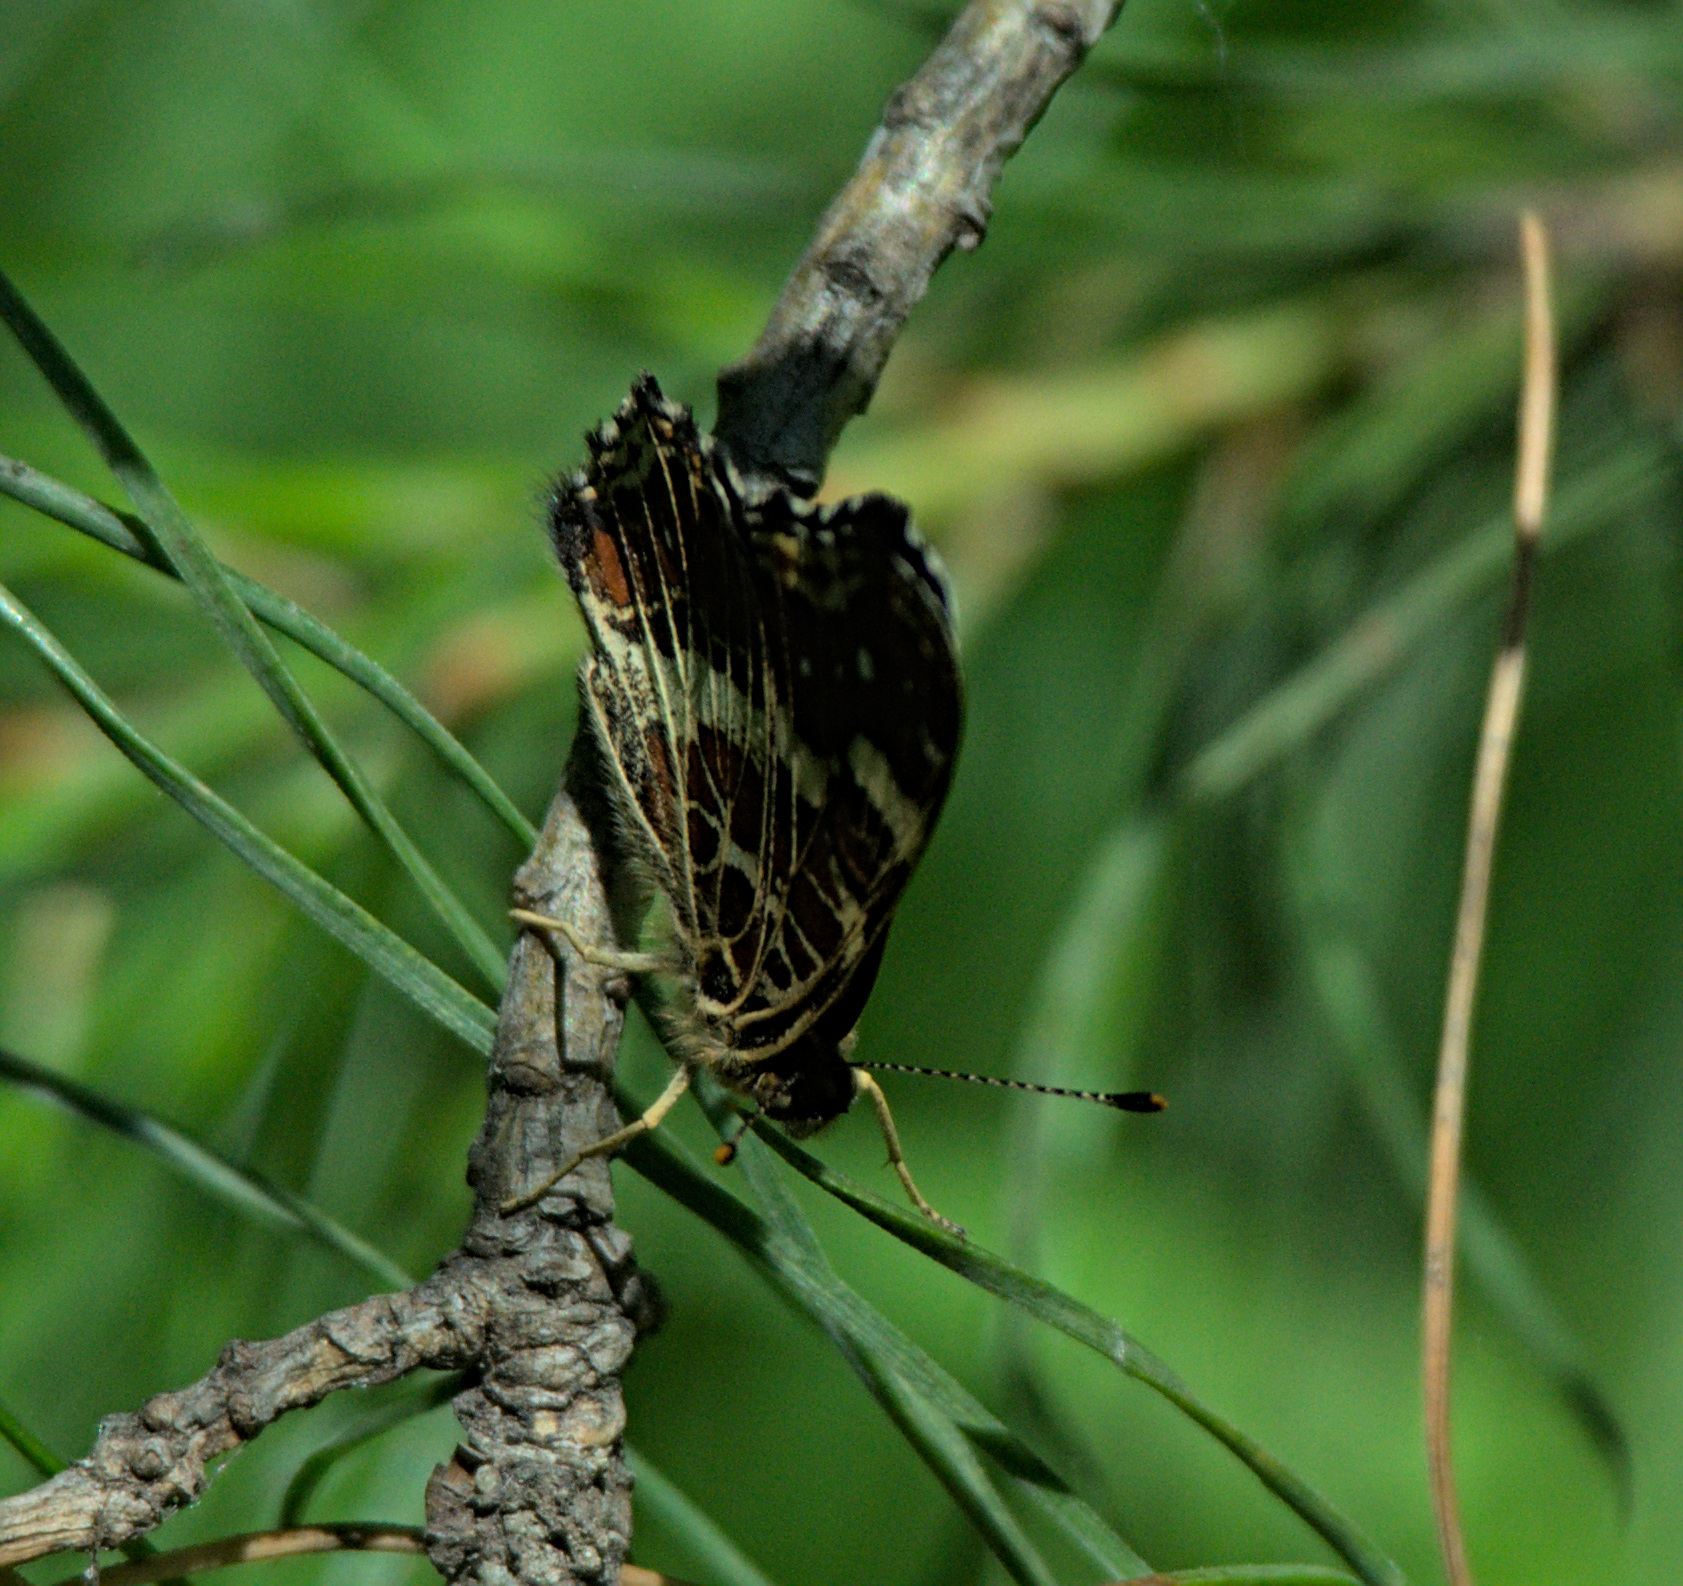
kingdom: Animalia
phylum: Arthropoda
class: Insecta
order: Lepidoptera
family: Nymphalidae
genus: Araschnia
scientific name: Araschnia levana
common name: Map butterfly
